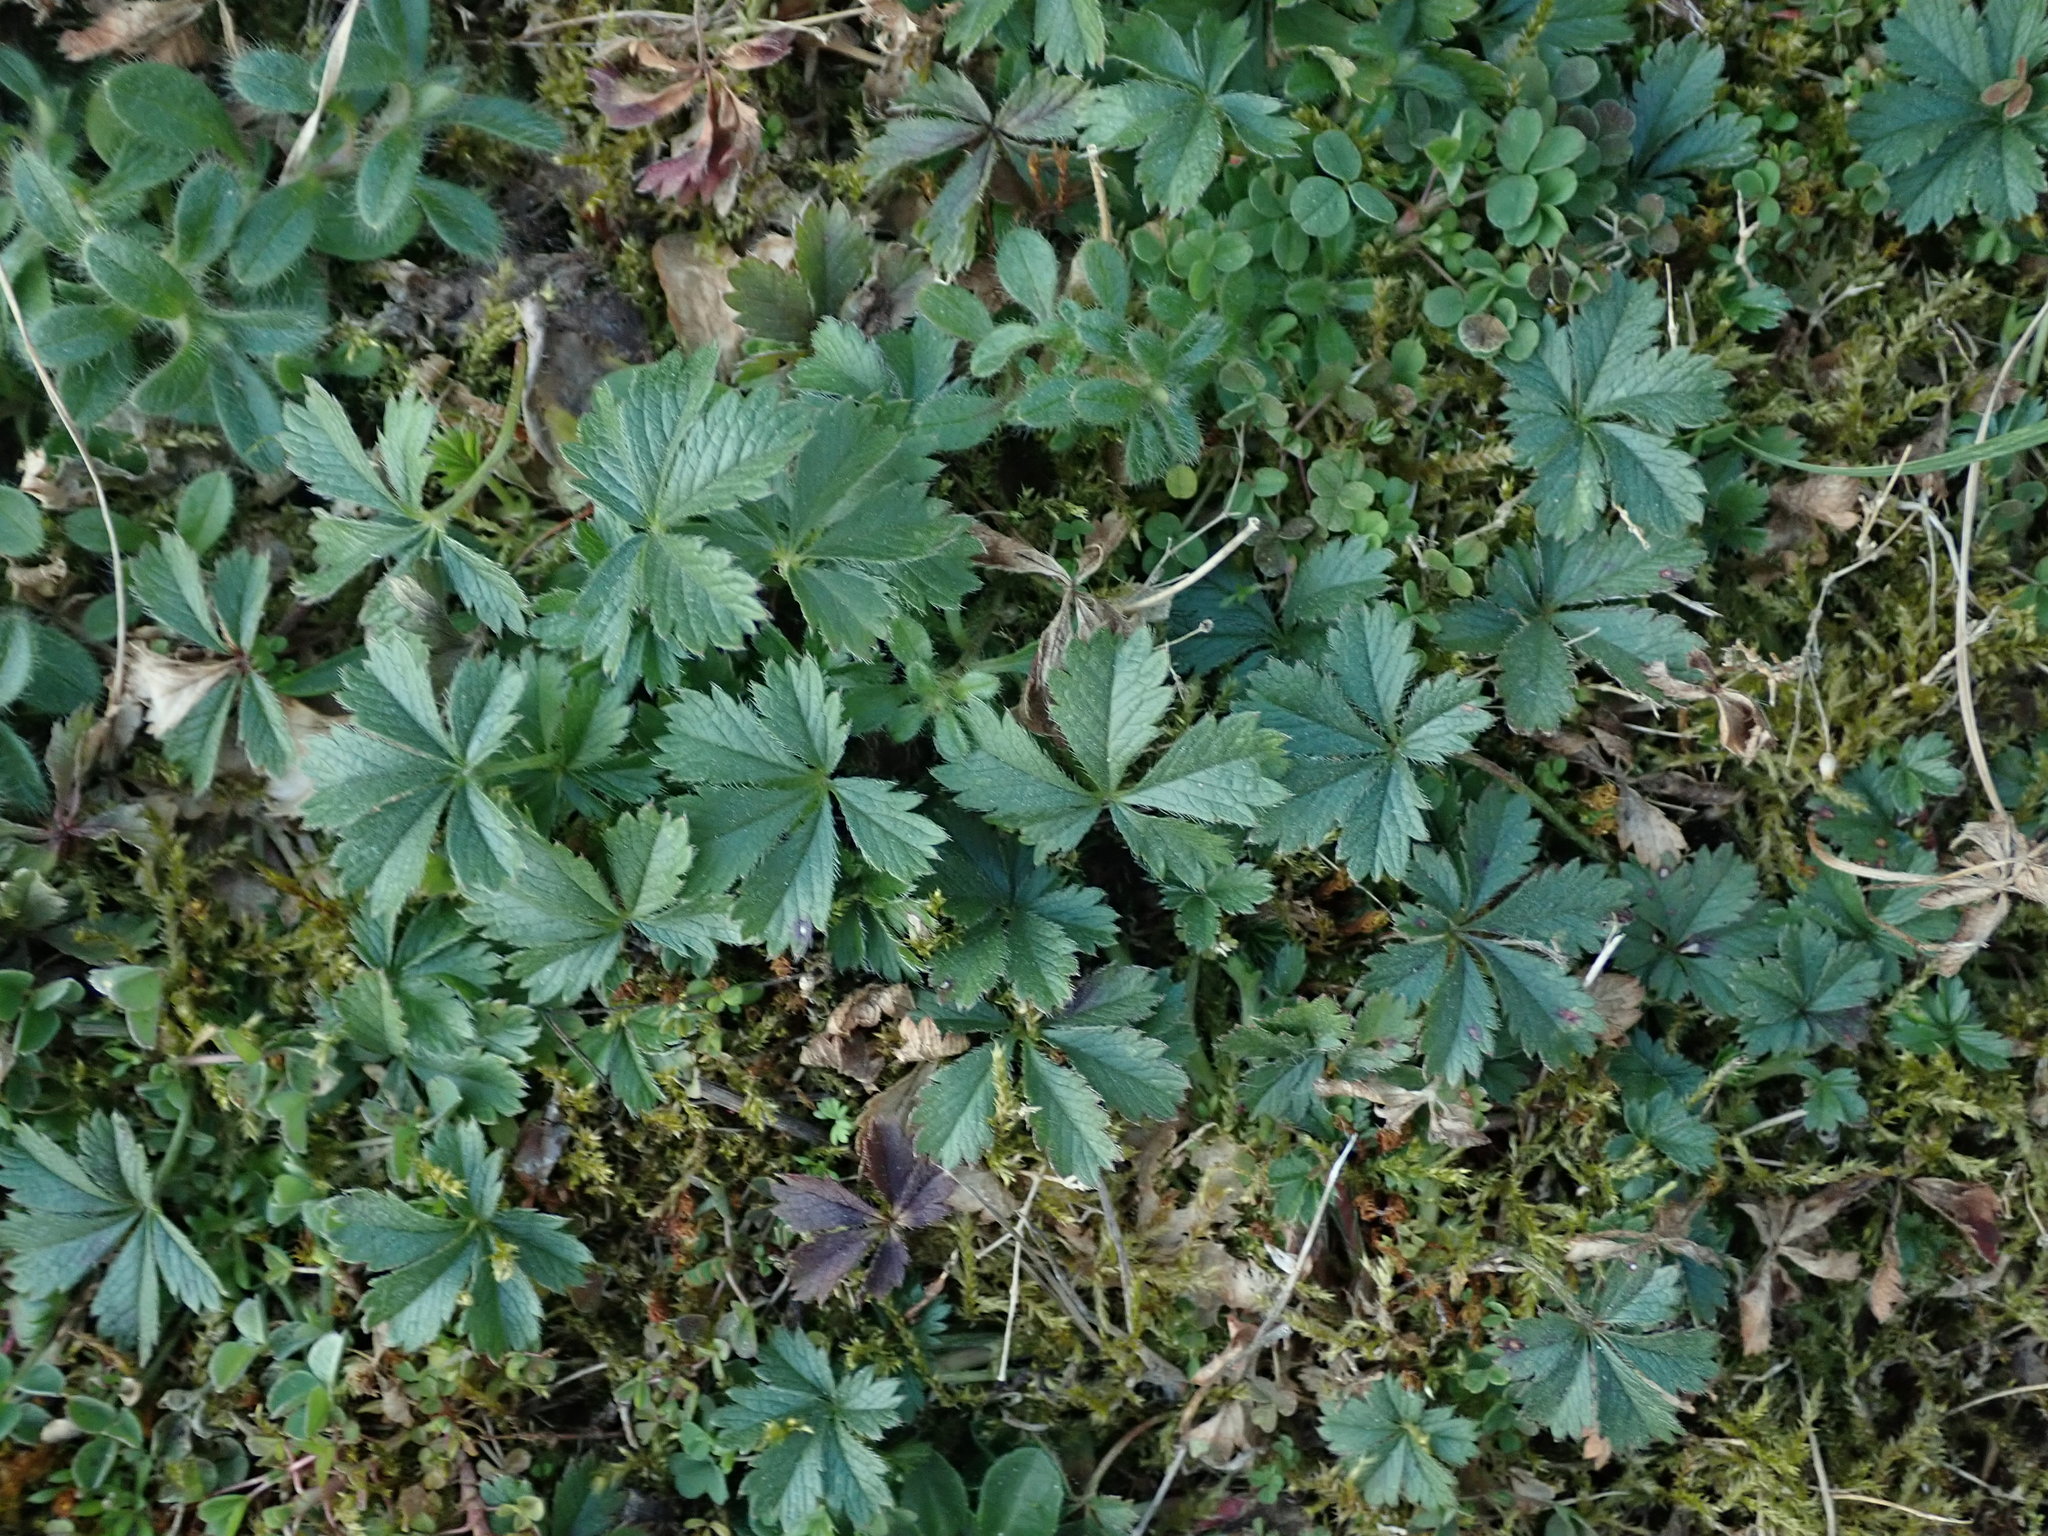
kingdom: Plantae
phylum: Tracheophyta
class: Magnoliopsida
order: Rosales
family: Rosaceae
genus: Potentilla
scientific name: Potentilla verna
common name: Spring cinquefoil
